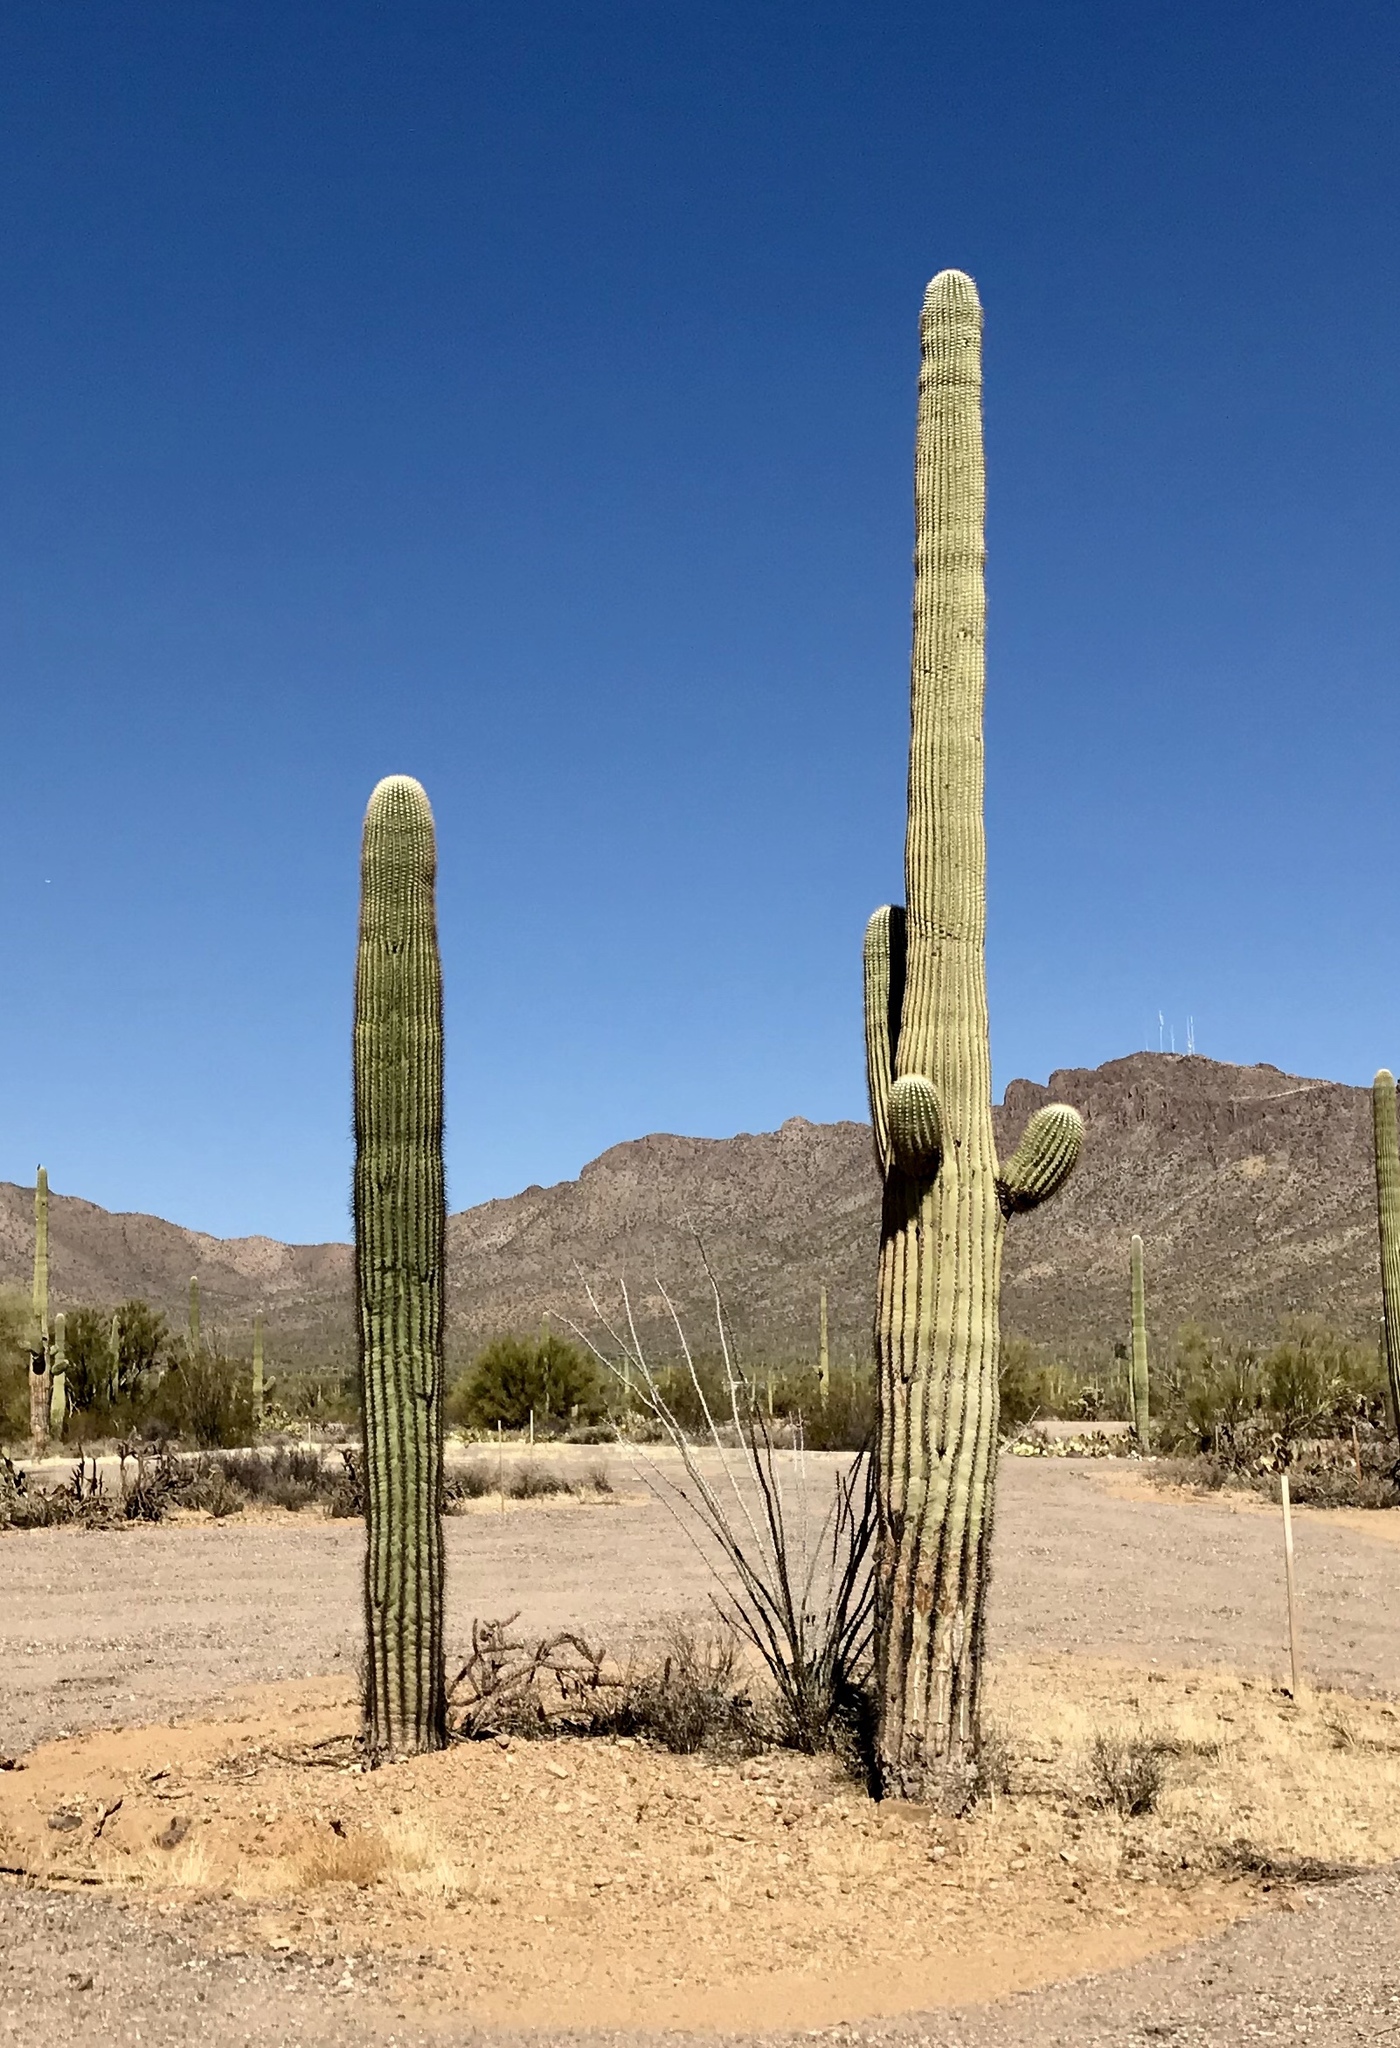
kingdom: Plantae
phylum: Tracheophyta
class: Magnoliopsida
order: Caryophyllales
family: Cactaceae
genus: Carnegiea
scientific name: Carnegiea gigantea
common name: Saguaro
